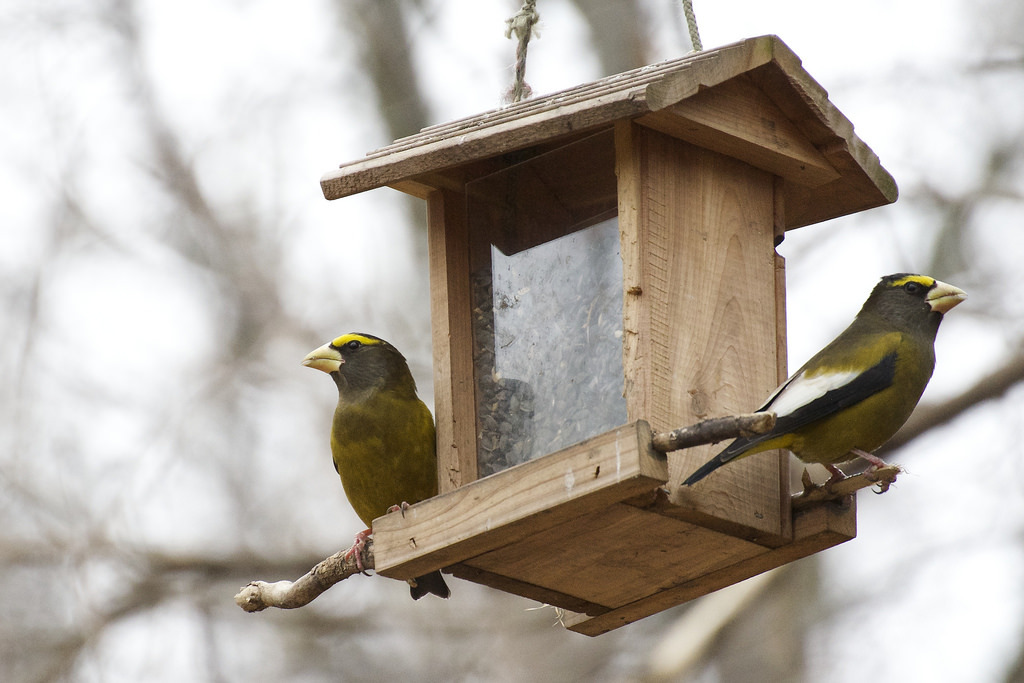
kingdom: Animalia
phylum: Chordata
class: Aves
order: Passeriformes
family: Fringillidae
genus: Hesperiphona
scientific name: Hesperiphona vespertina
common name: Evening grosbeak
